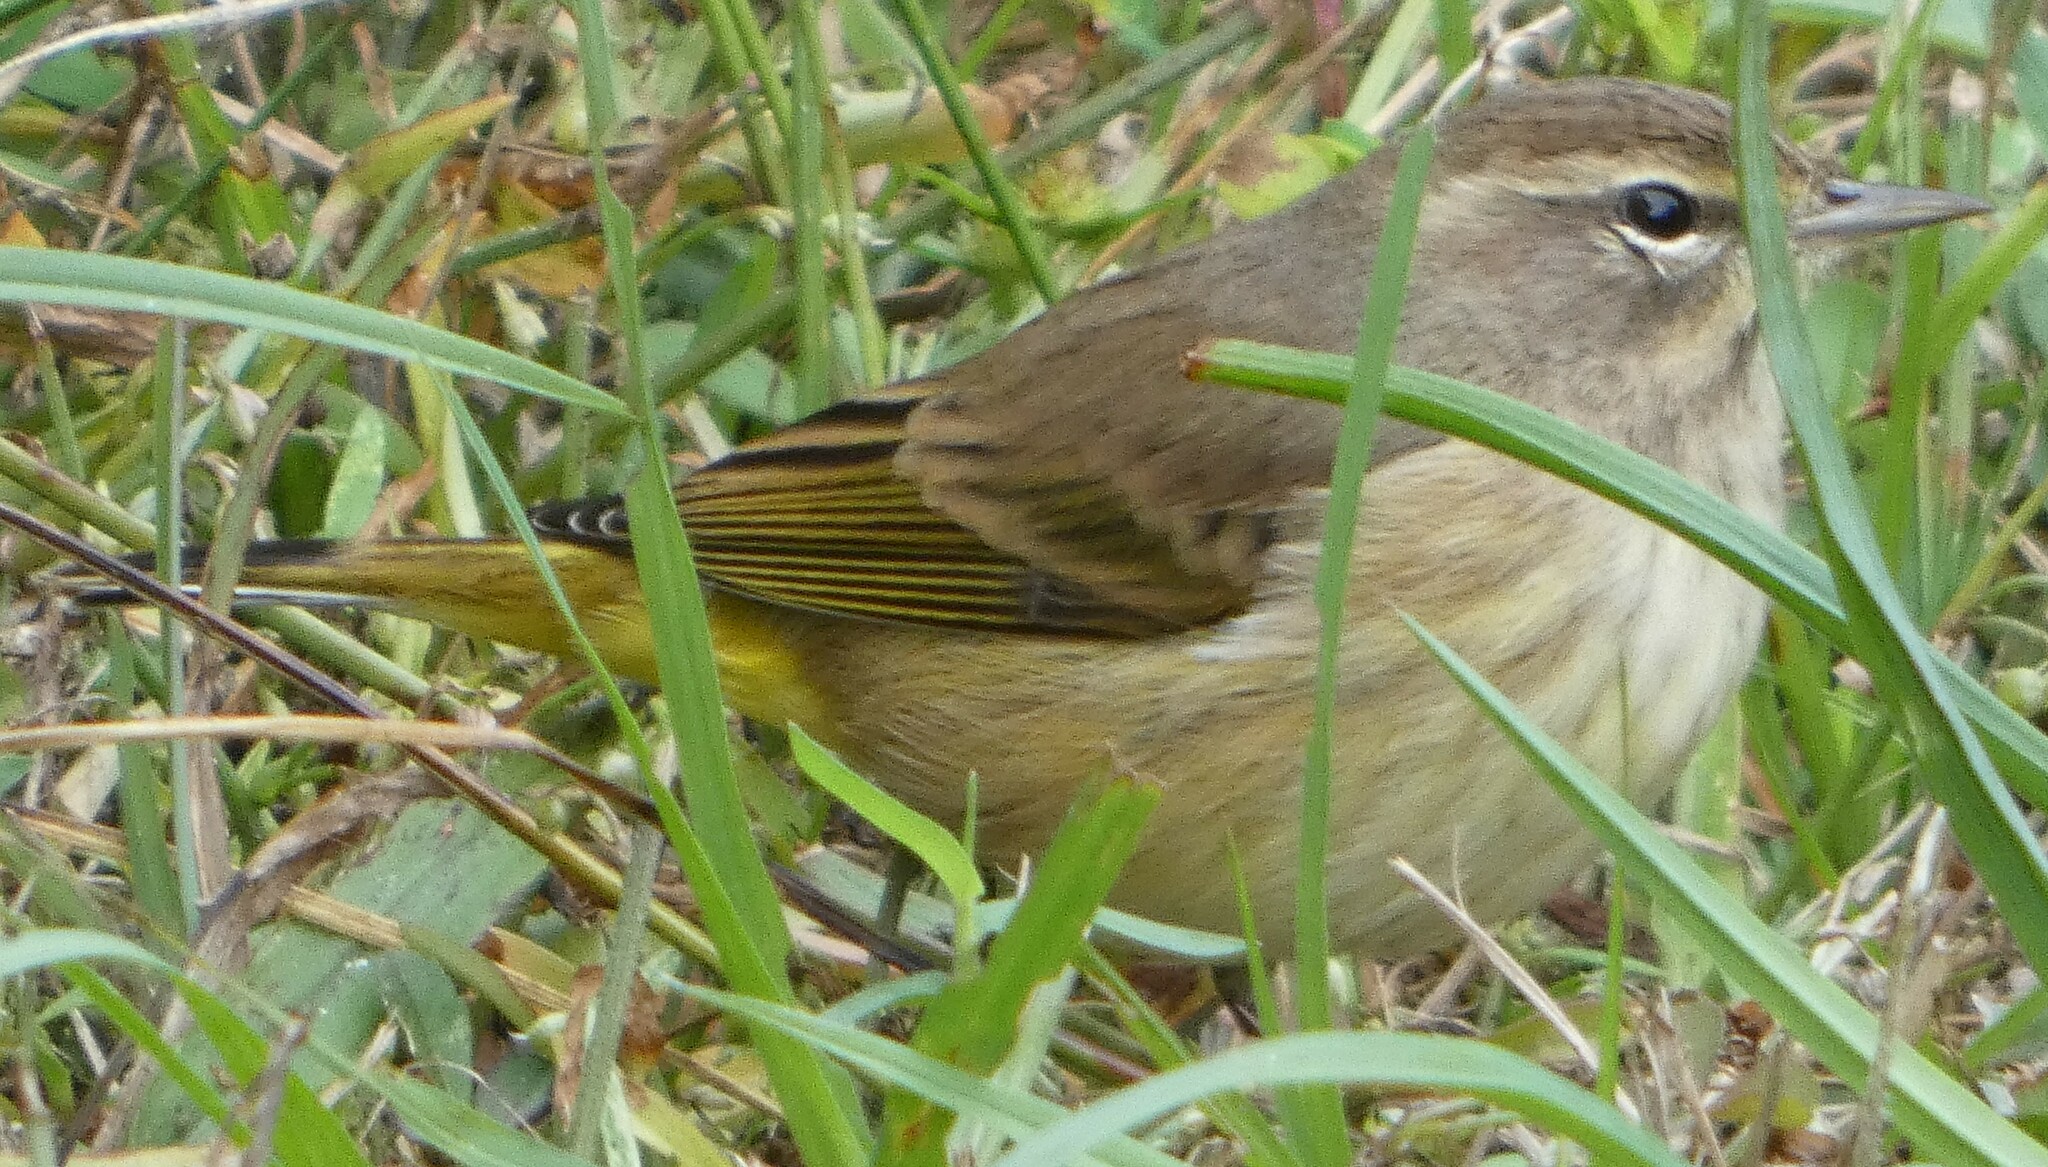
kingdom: Animalia
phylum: Chordata
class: Aves
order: Passeriformes
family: Parulidae
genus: Setophaga
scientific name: Setophaga palmarum
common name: Palm warbler
